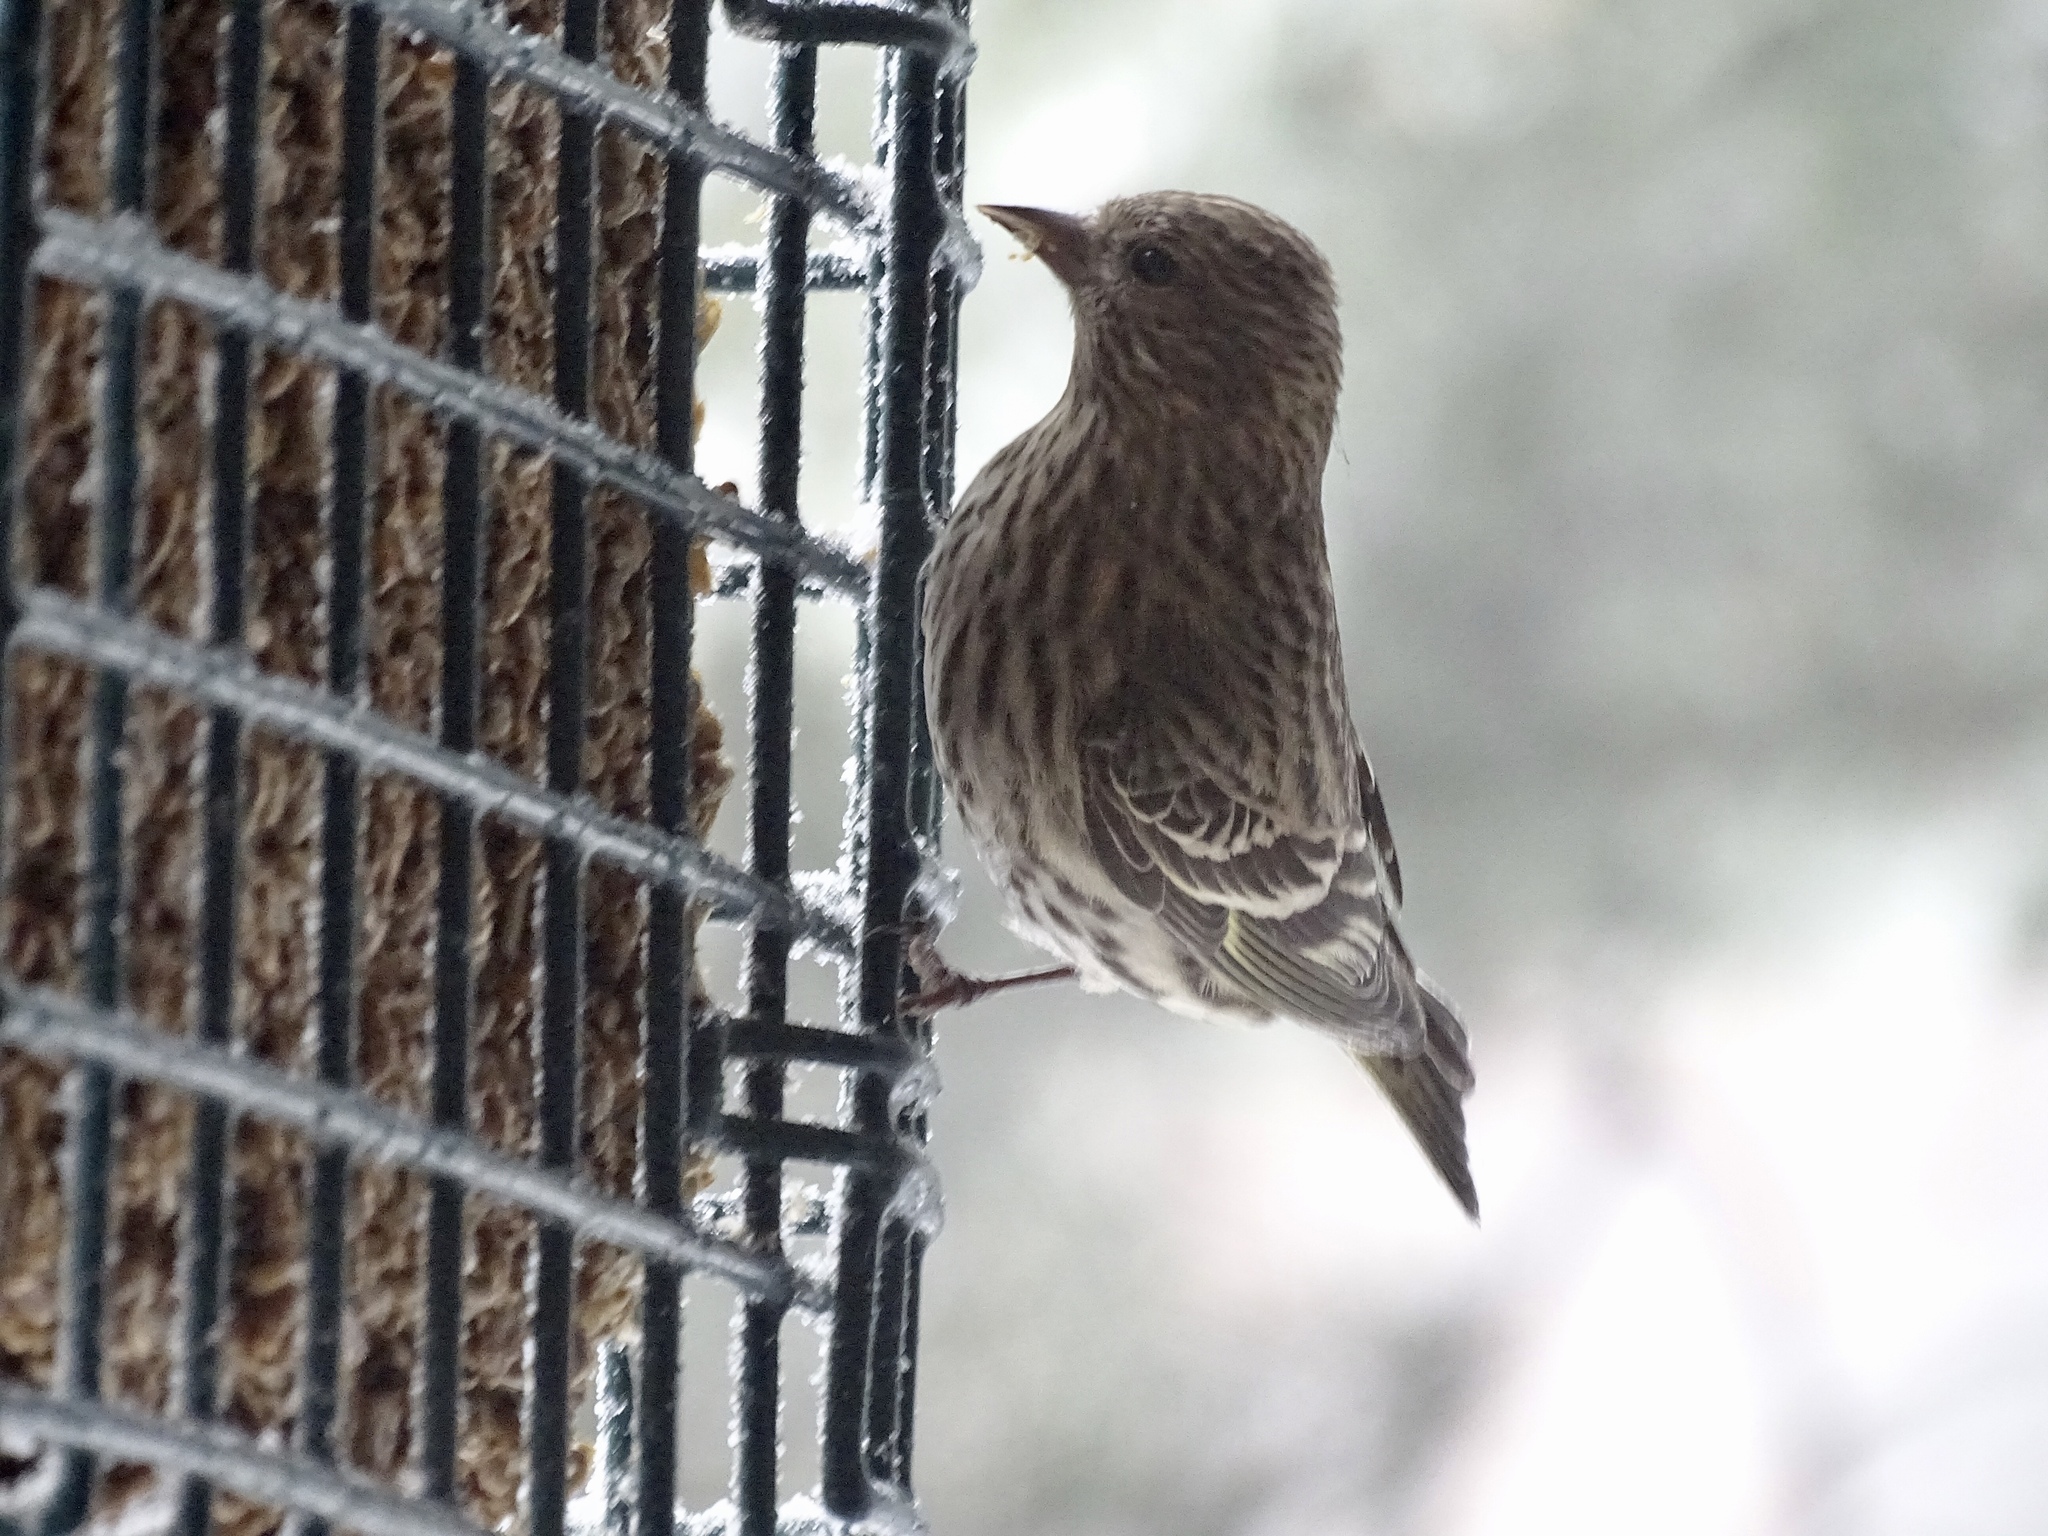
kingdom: Animalia
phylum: Chordata
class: Aves
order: Passeriformes
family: Fringillidae
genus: Spinus
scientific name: Spinus pinus
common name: Pine siskin
